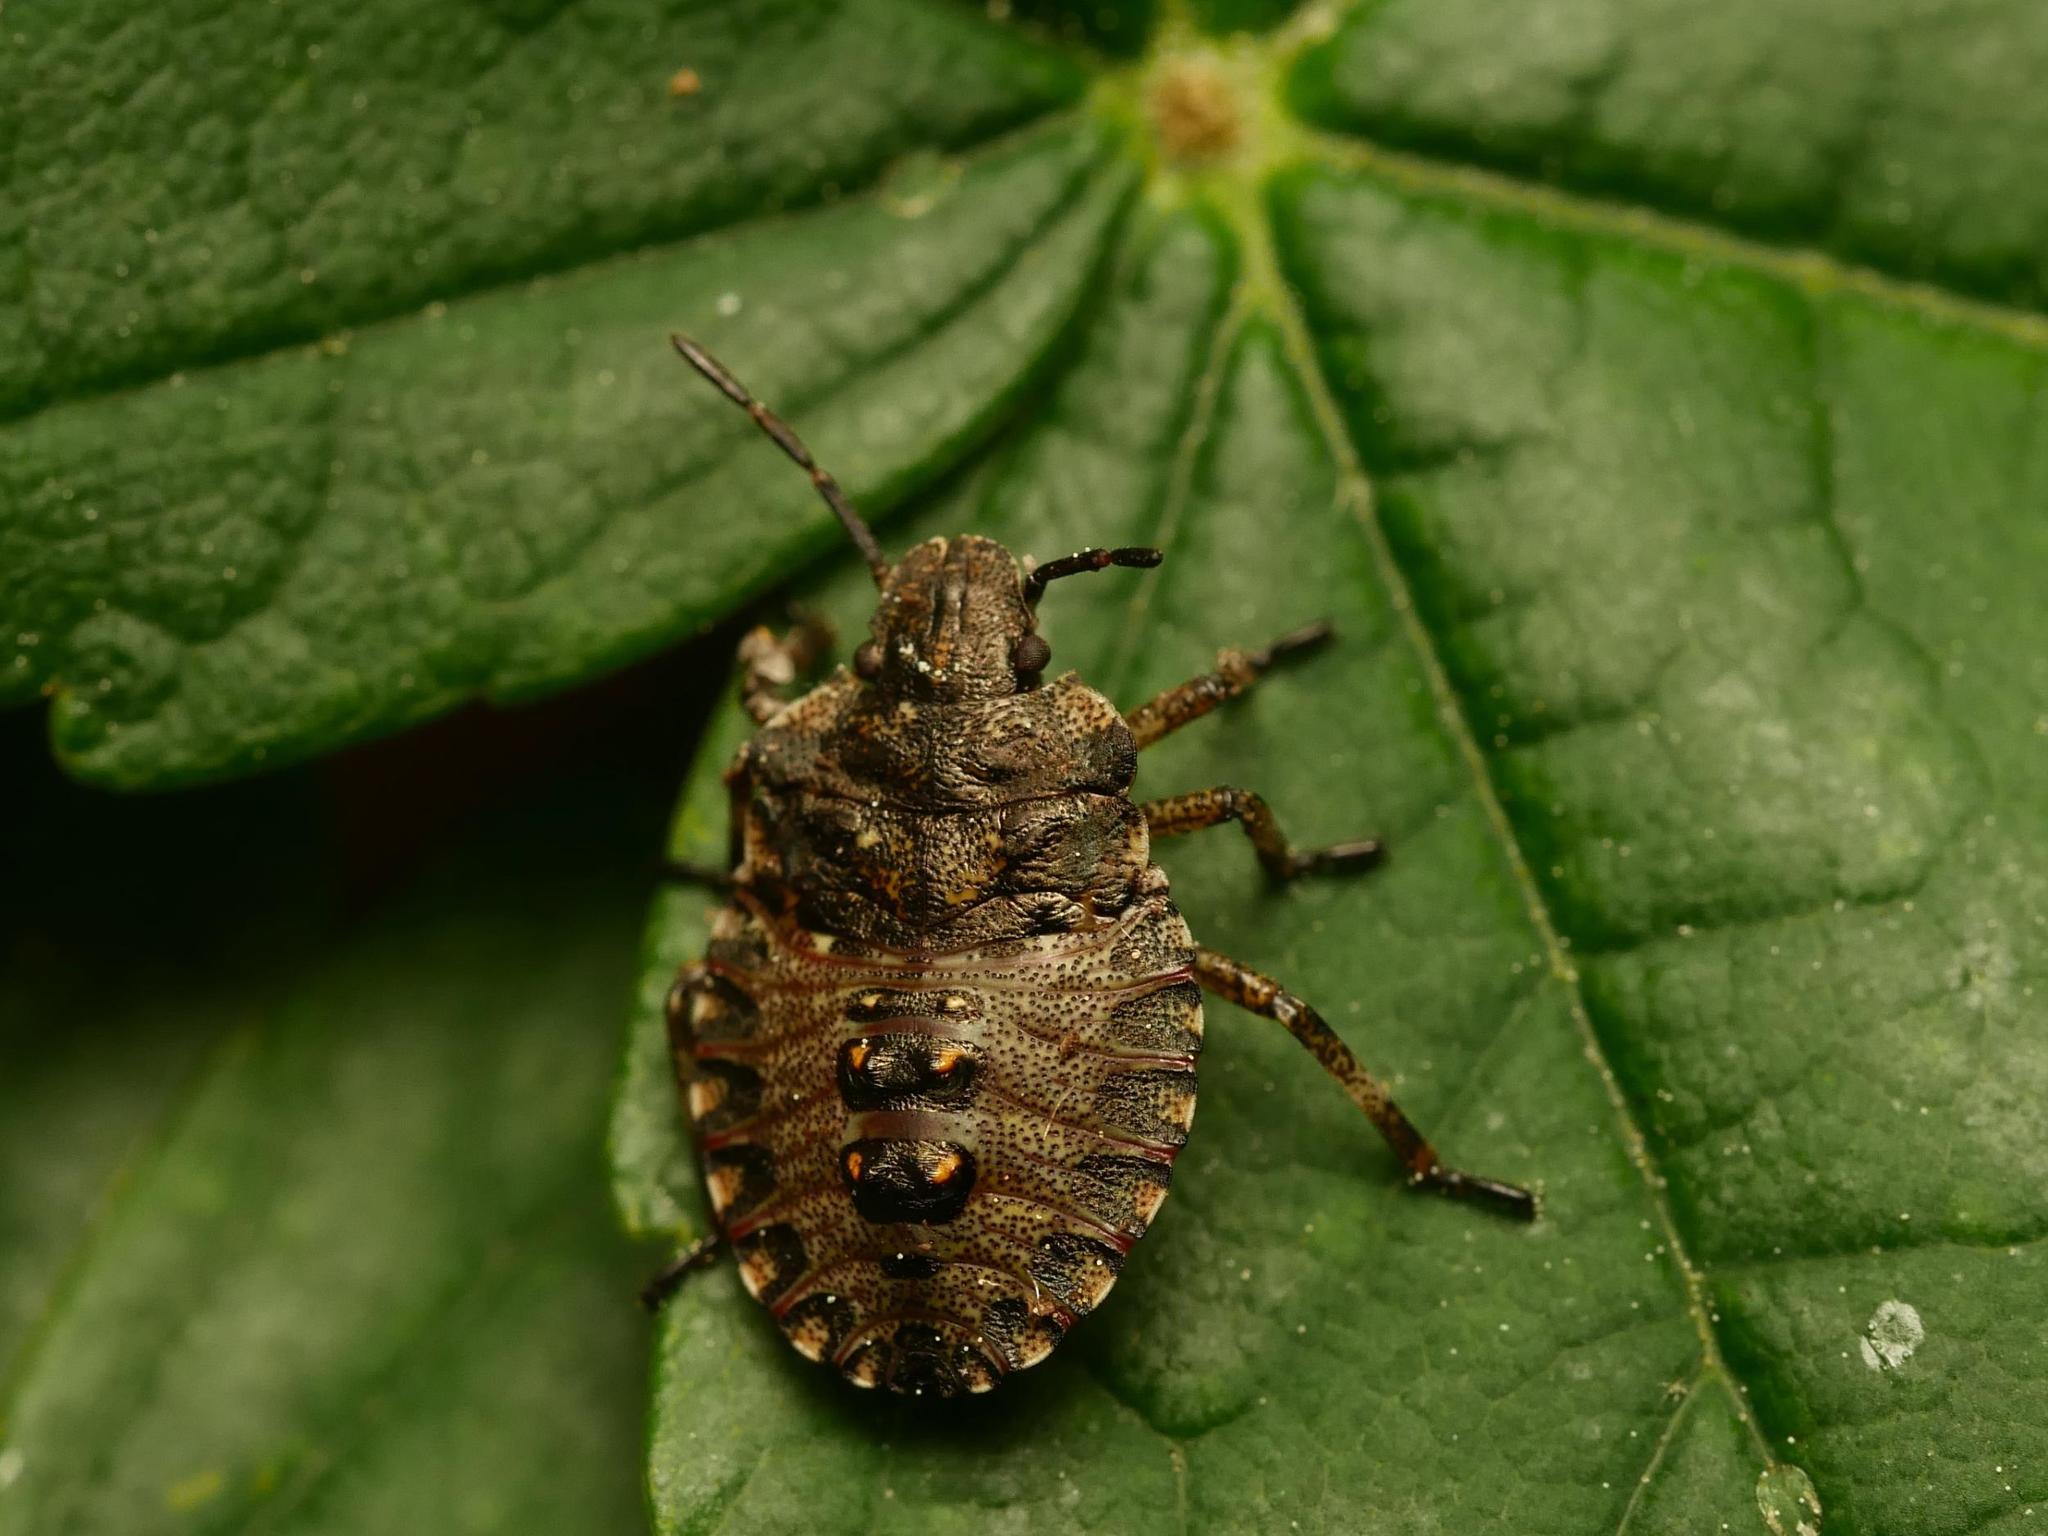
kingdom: Animalia
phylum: Arthropoda
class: Insecta
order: Hemiptera
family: Pentatomidae
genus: Pentatoma
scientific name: Pentatoma rufipes
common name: Forest bug
